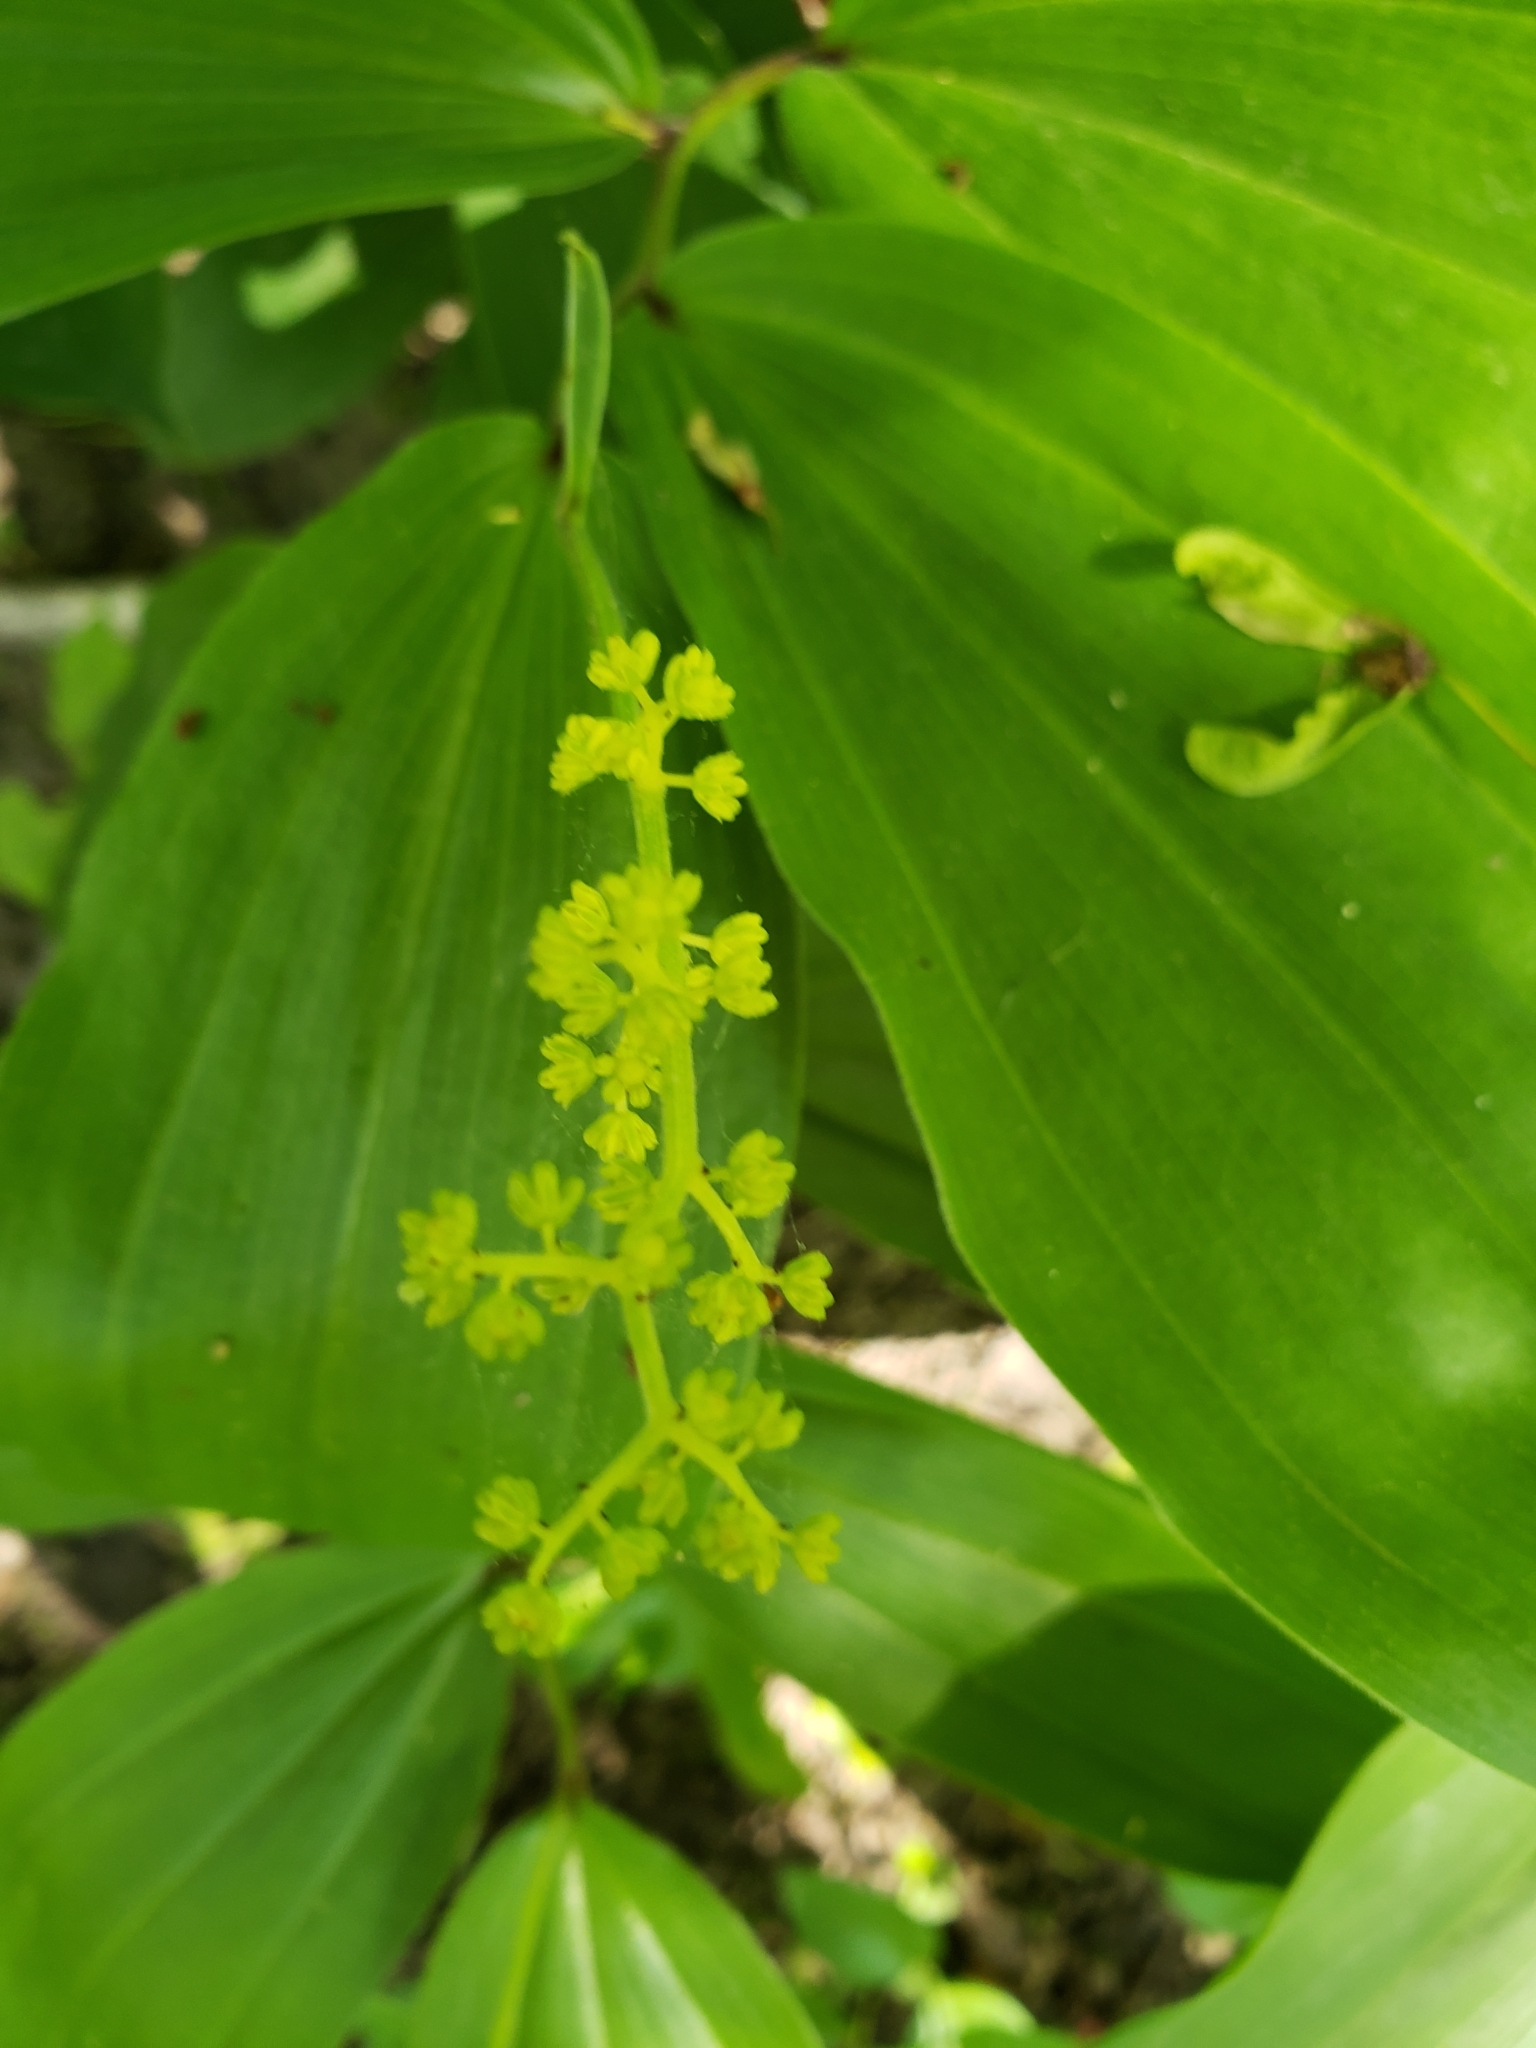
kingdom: Plantae
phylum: Tracheophyta
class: Liliopsida
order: Asparagales
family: Asparagaceae
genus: Maianthemum
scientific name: Maianthemum racemosum
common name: False spikenard
